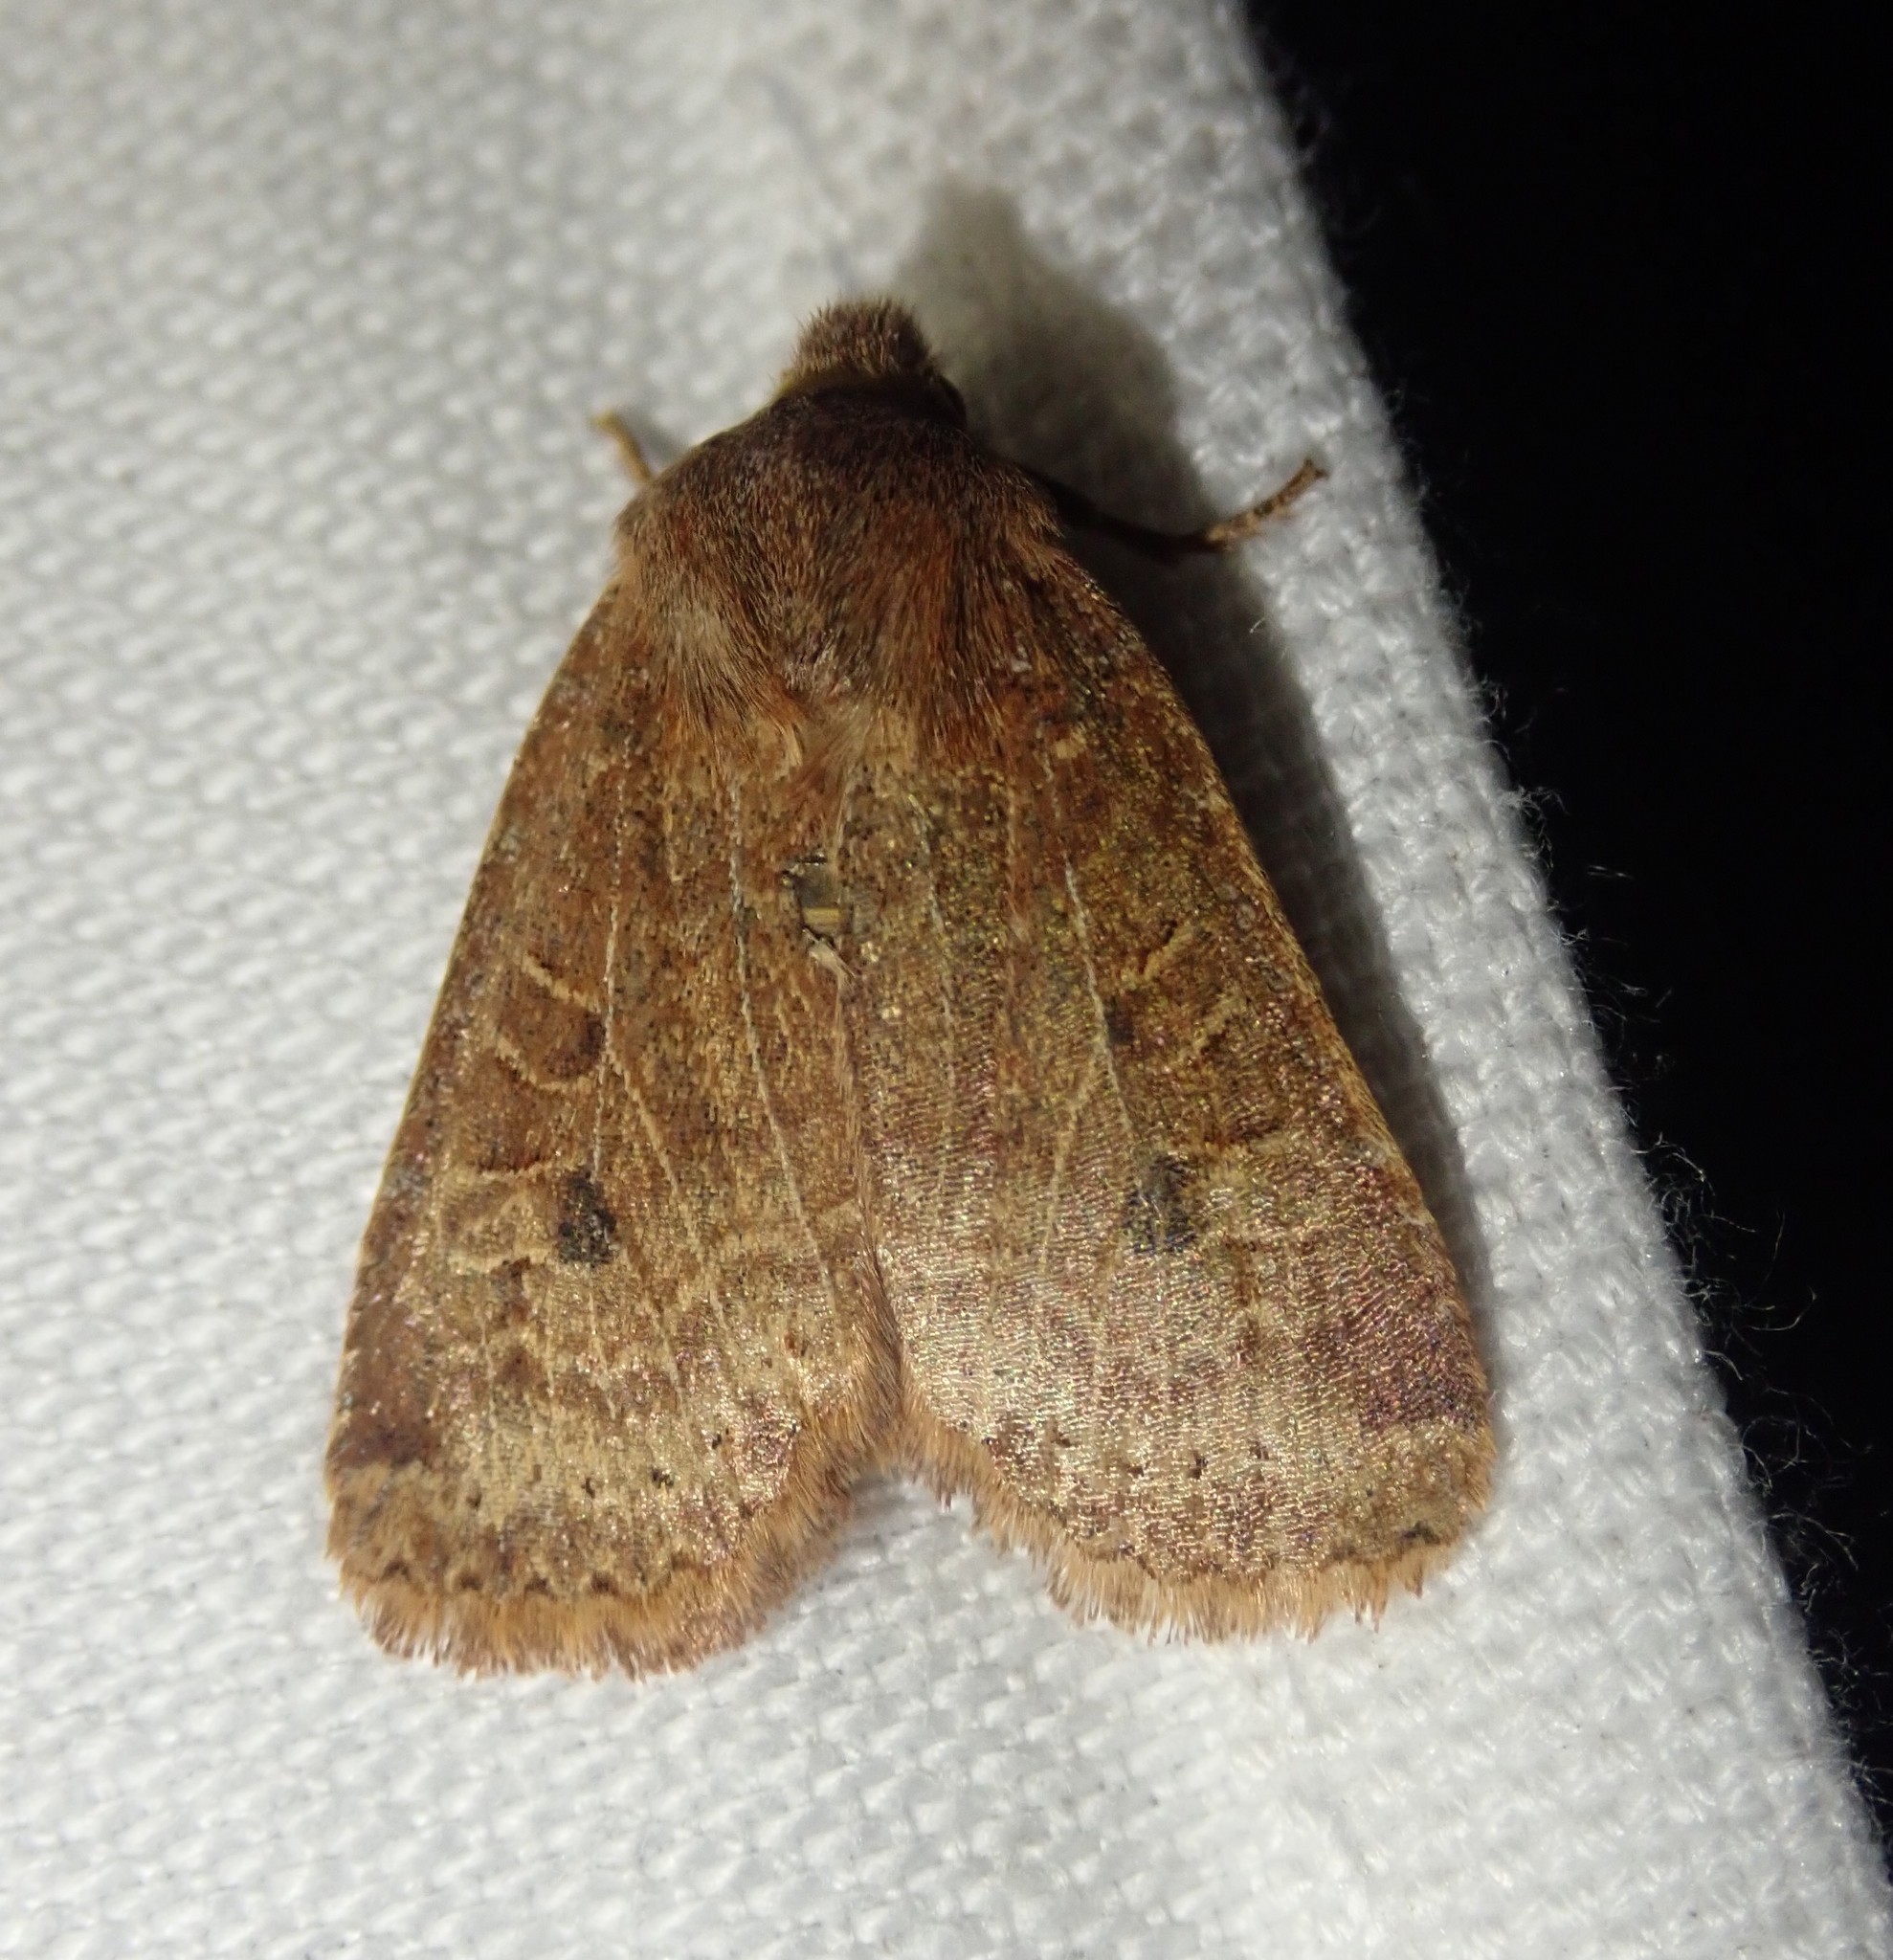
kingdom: Animalia
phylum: Arthropoda
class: Insecta
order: Lepidoptera
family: Noctuidae
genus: Conistra
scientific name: Conistra vaccinii
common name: Chestnut
